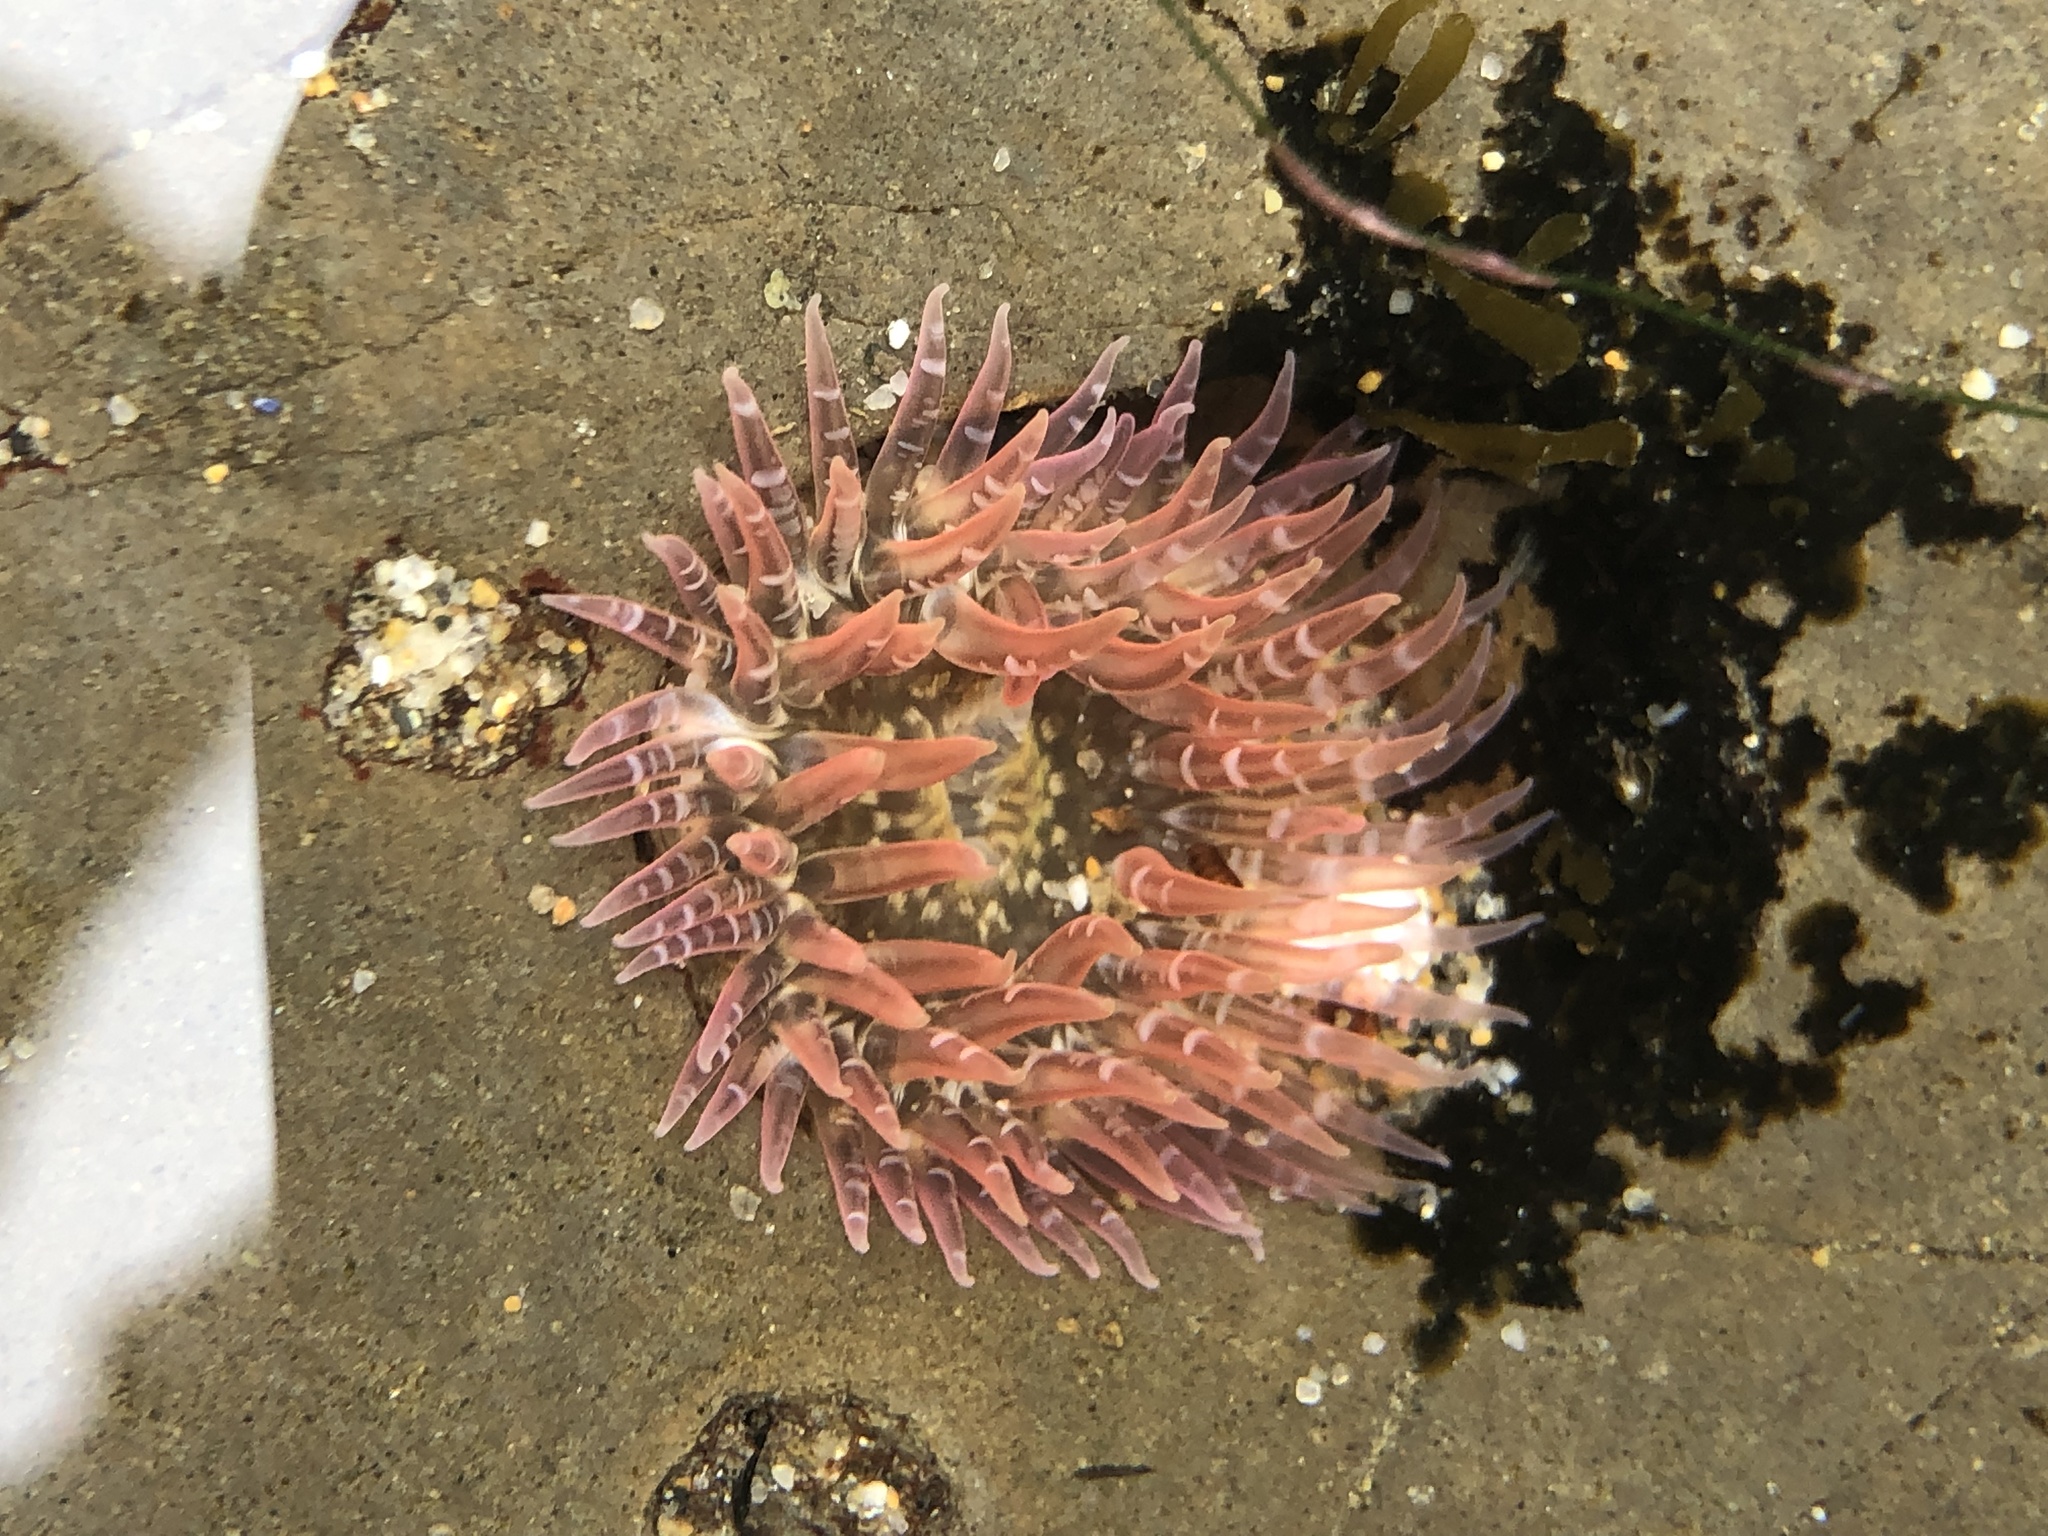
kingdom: Animalia
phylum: Cnidaria
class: Anthozoa
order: Actiniaria
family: Actiniidae
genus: Anthopleura
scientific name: Anthopleura artemisia
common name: Buried sea anemone
